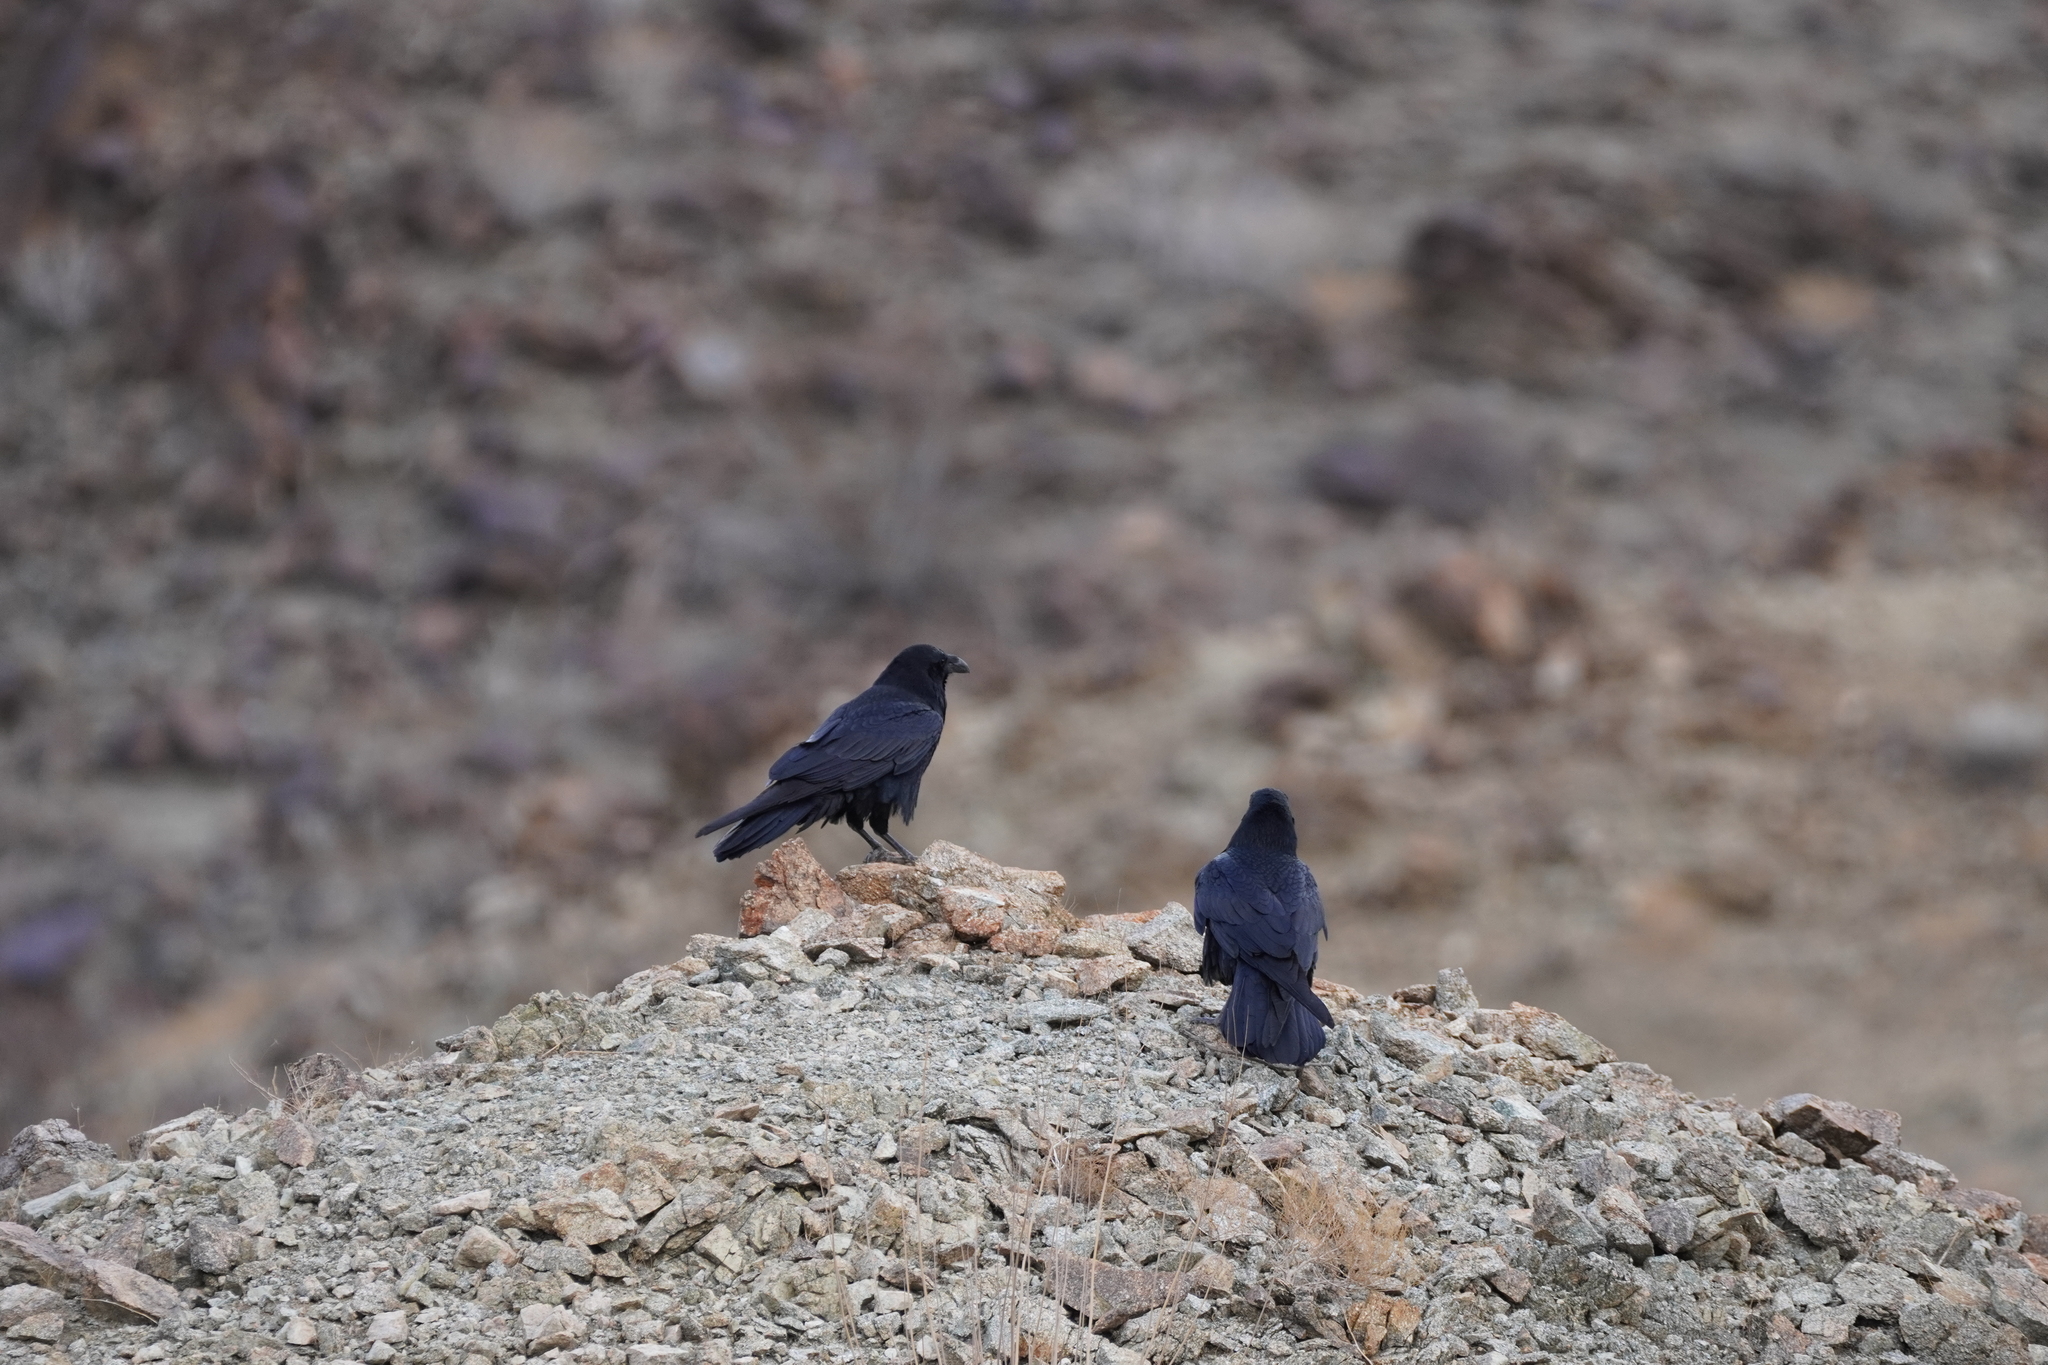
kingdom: Animalia
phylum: Chordata
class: Aves
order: Passeriformes
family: Corvidae
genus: Corvus
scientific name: Corvus corax
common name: Common raven
